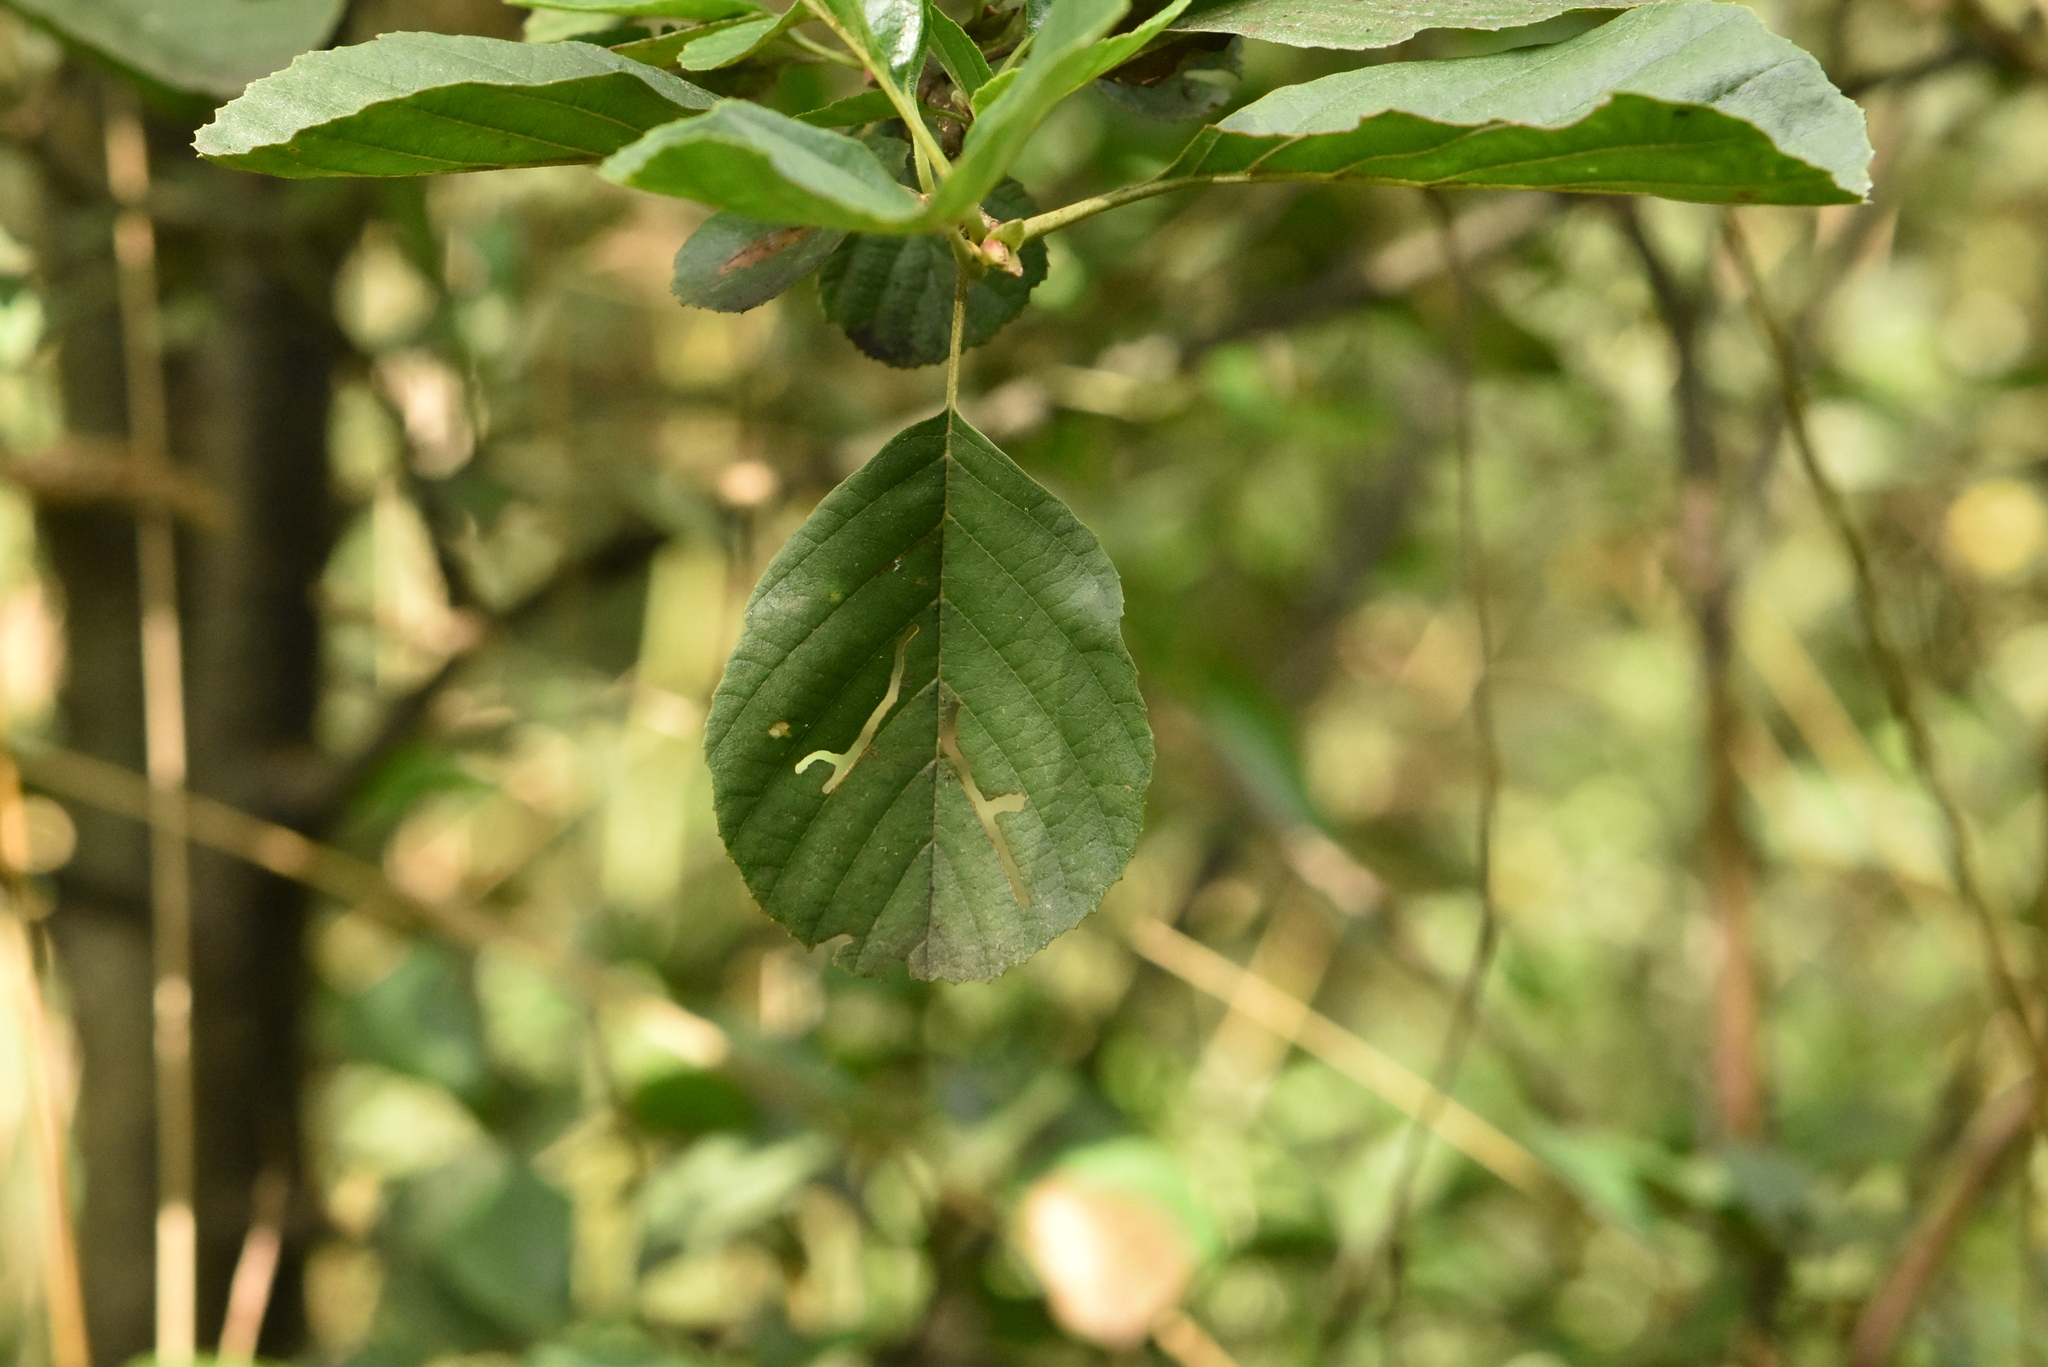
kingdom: Plantae
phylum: Tracheophyta
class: Magnoliopsida
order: Fagales
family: Betulaceae
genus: Alnus
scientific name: Alnus glutinosa
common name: Black alder
